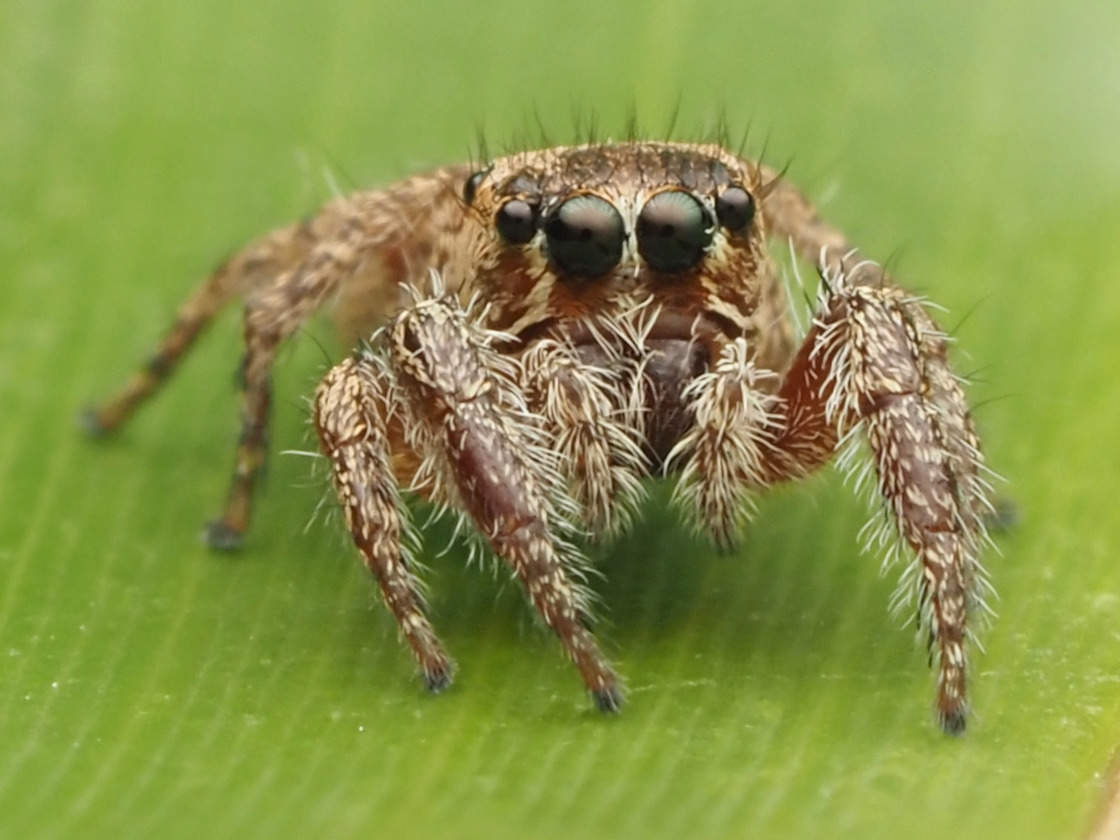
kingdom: Animalia
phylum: Arthropoda
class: Arachnida
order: Araneae
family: Salticidae
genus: Habronattus
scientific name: Habronattus paratus
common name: Jumping spiders
